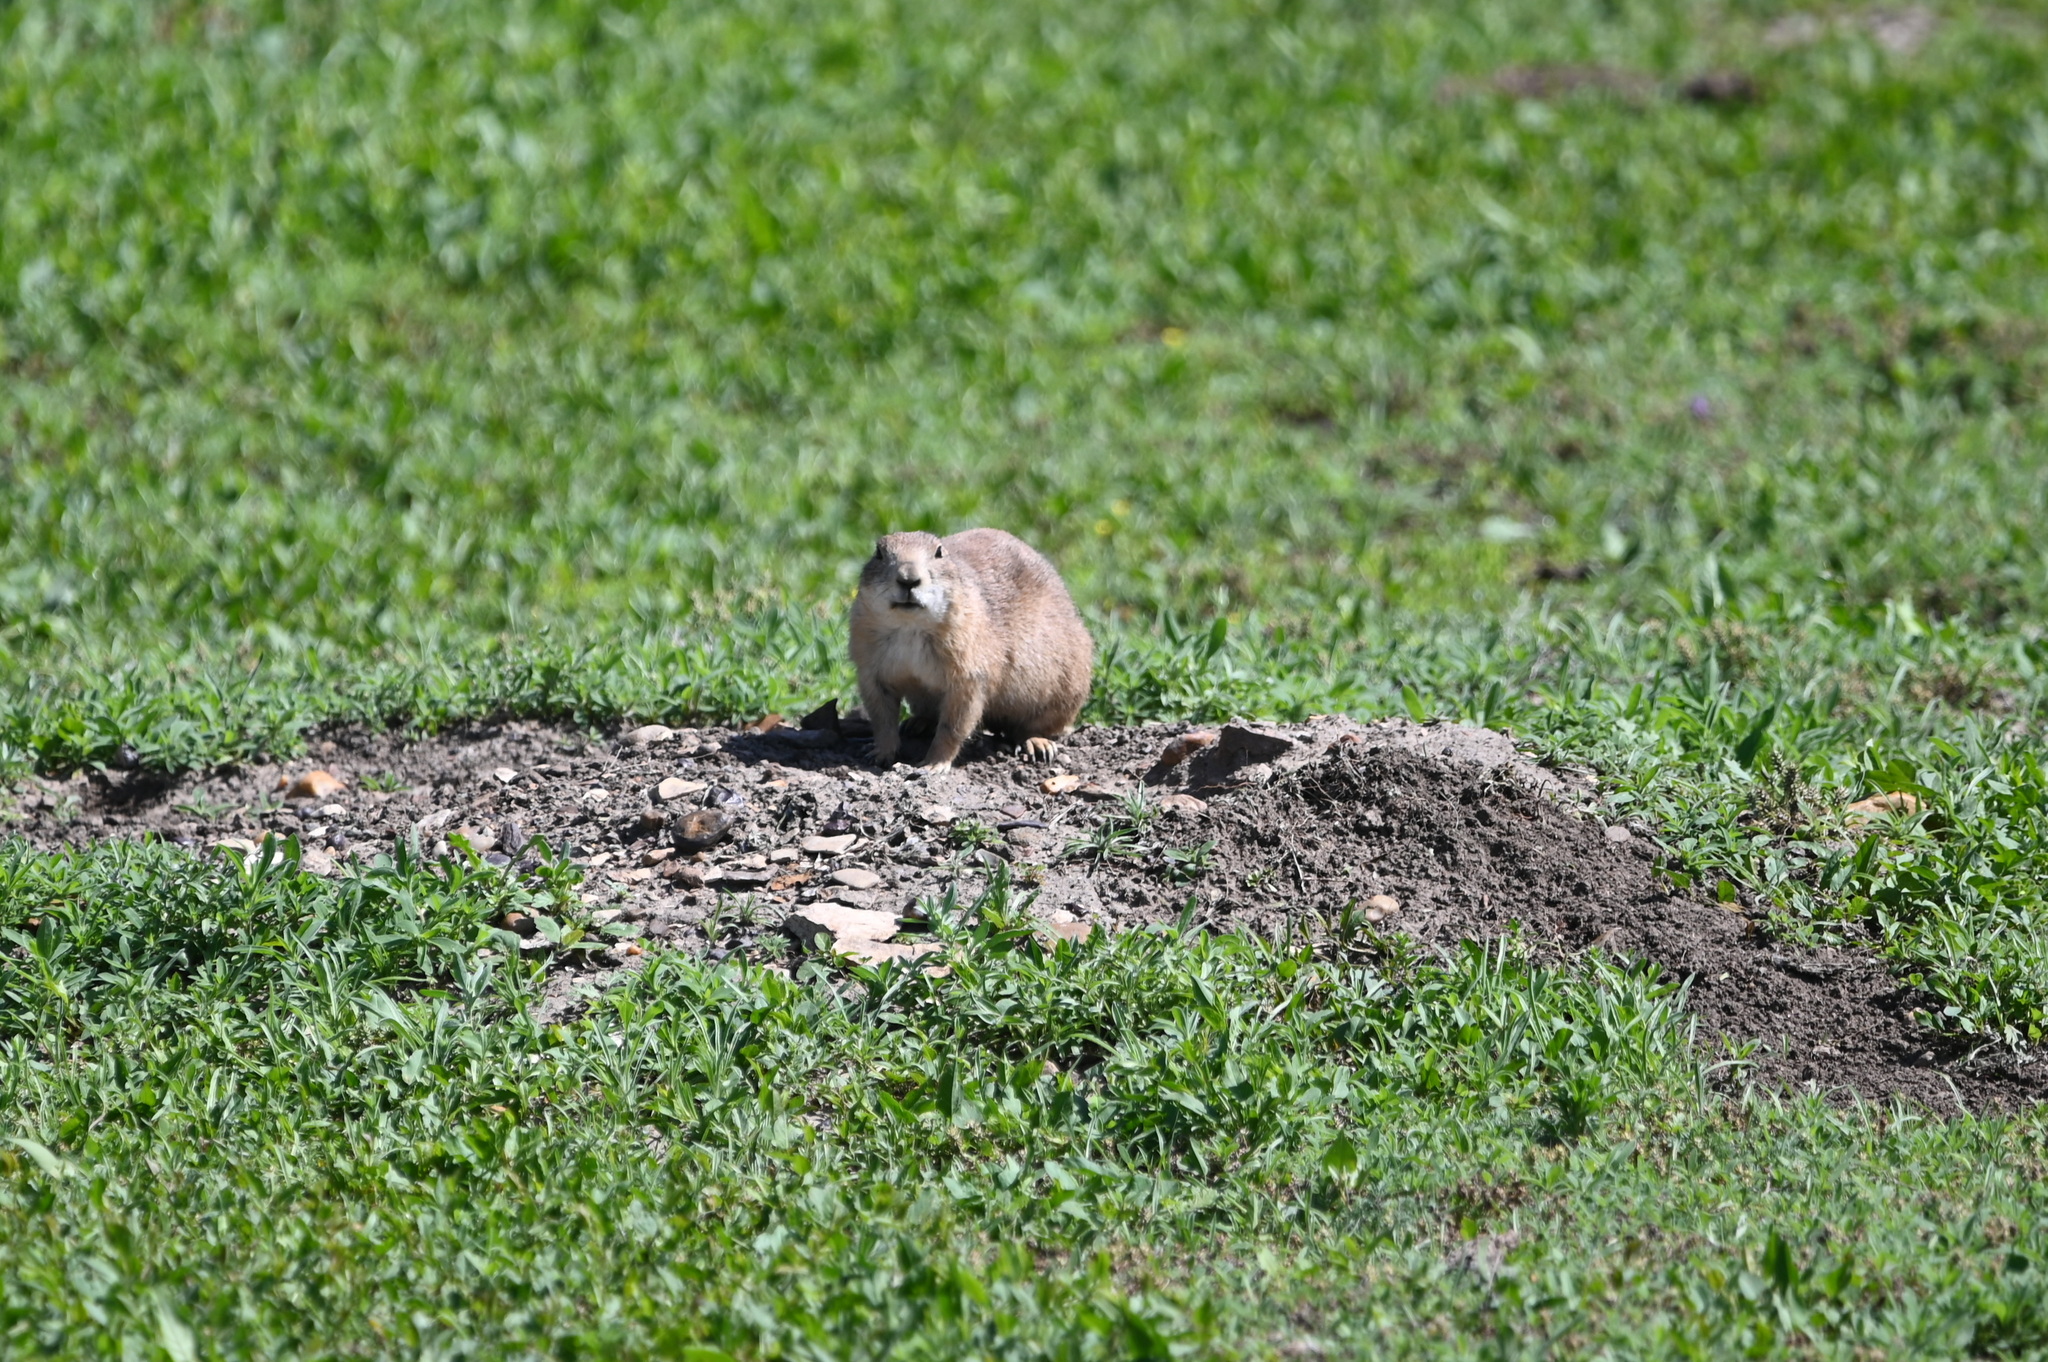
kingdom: Animalia
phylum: Chordata
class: Mammalia
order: Rodentia
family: Sciuridae
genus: Cynomys
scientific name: Cynomys ludovicianus
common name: Black-tailed prairie dog
